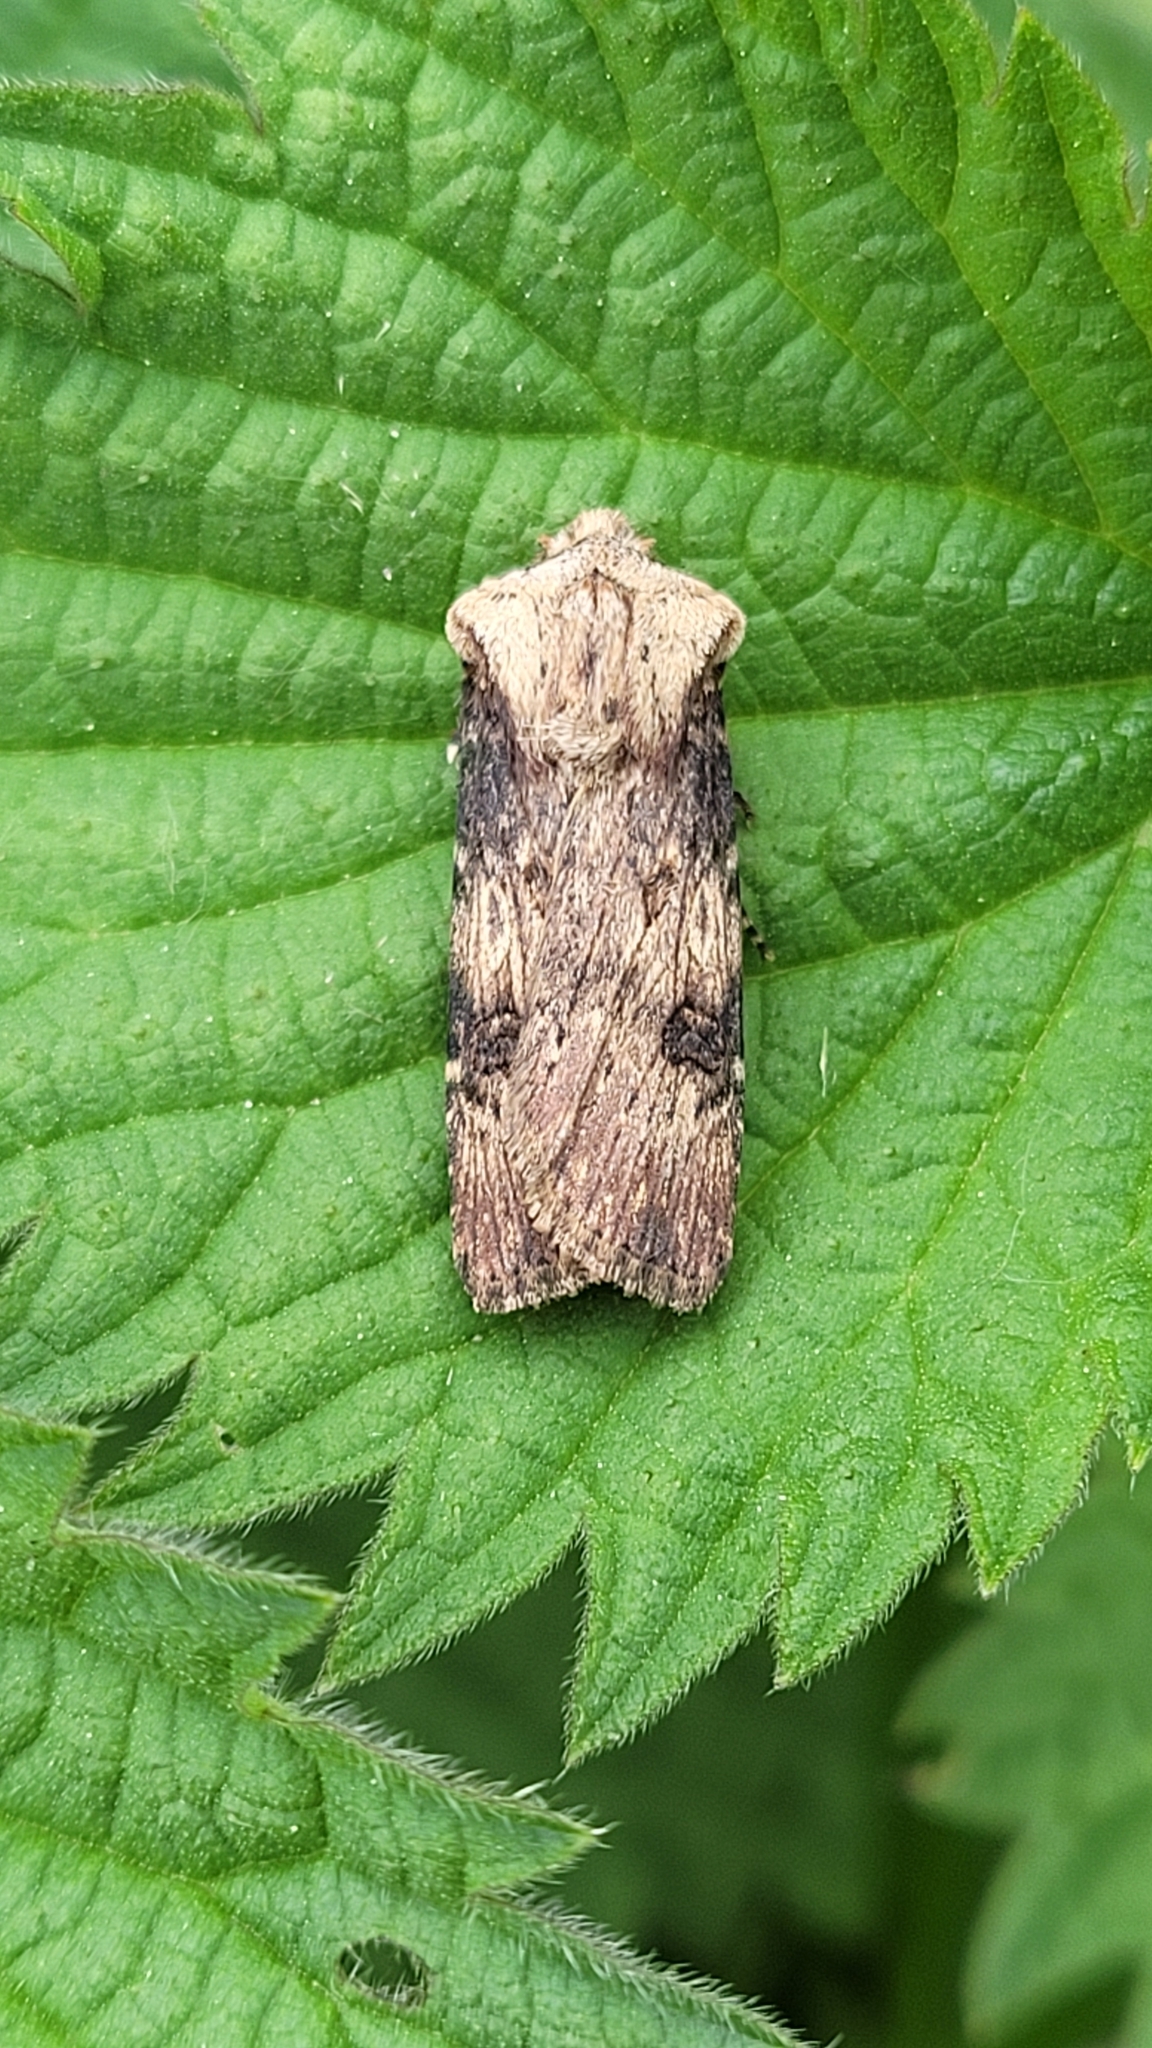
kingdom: Animalia
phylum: Arthropoda
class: Insecta
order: Lepidoptera
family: Noctuidae
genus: Agrotis
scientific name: Agrotis puta
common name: Shuttle-shaped dart
